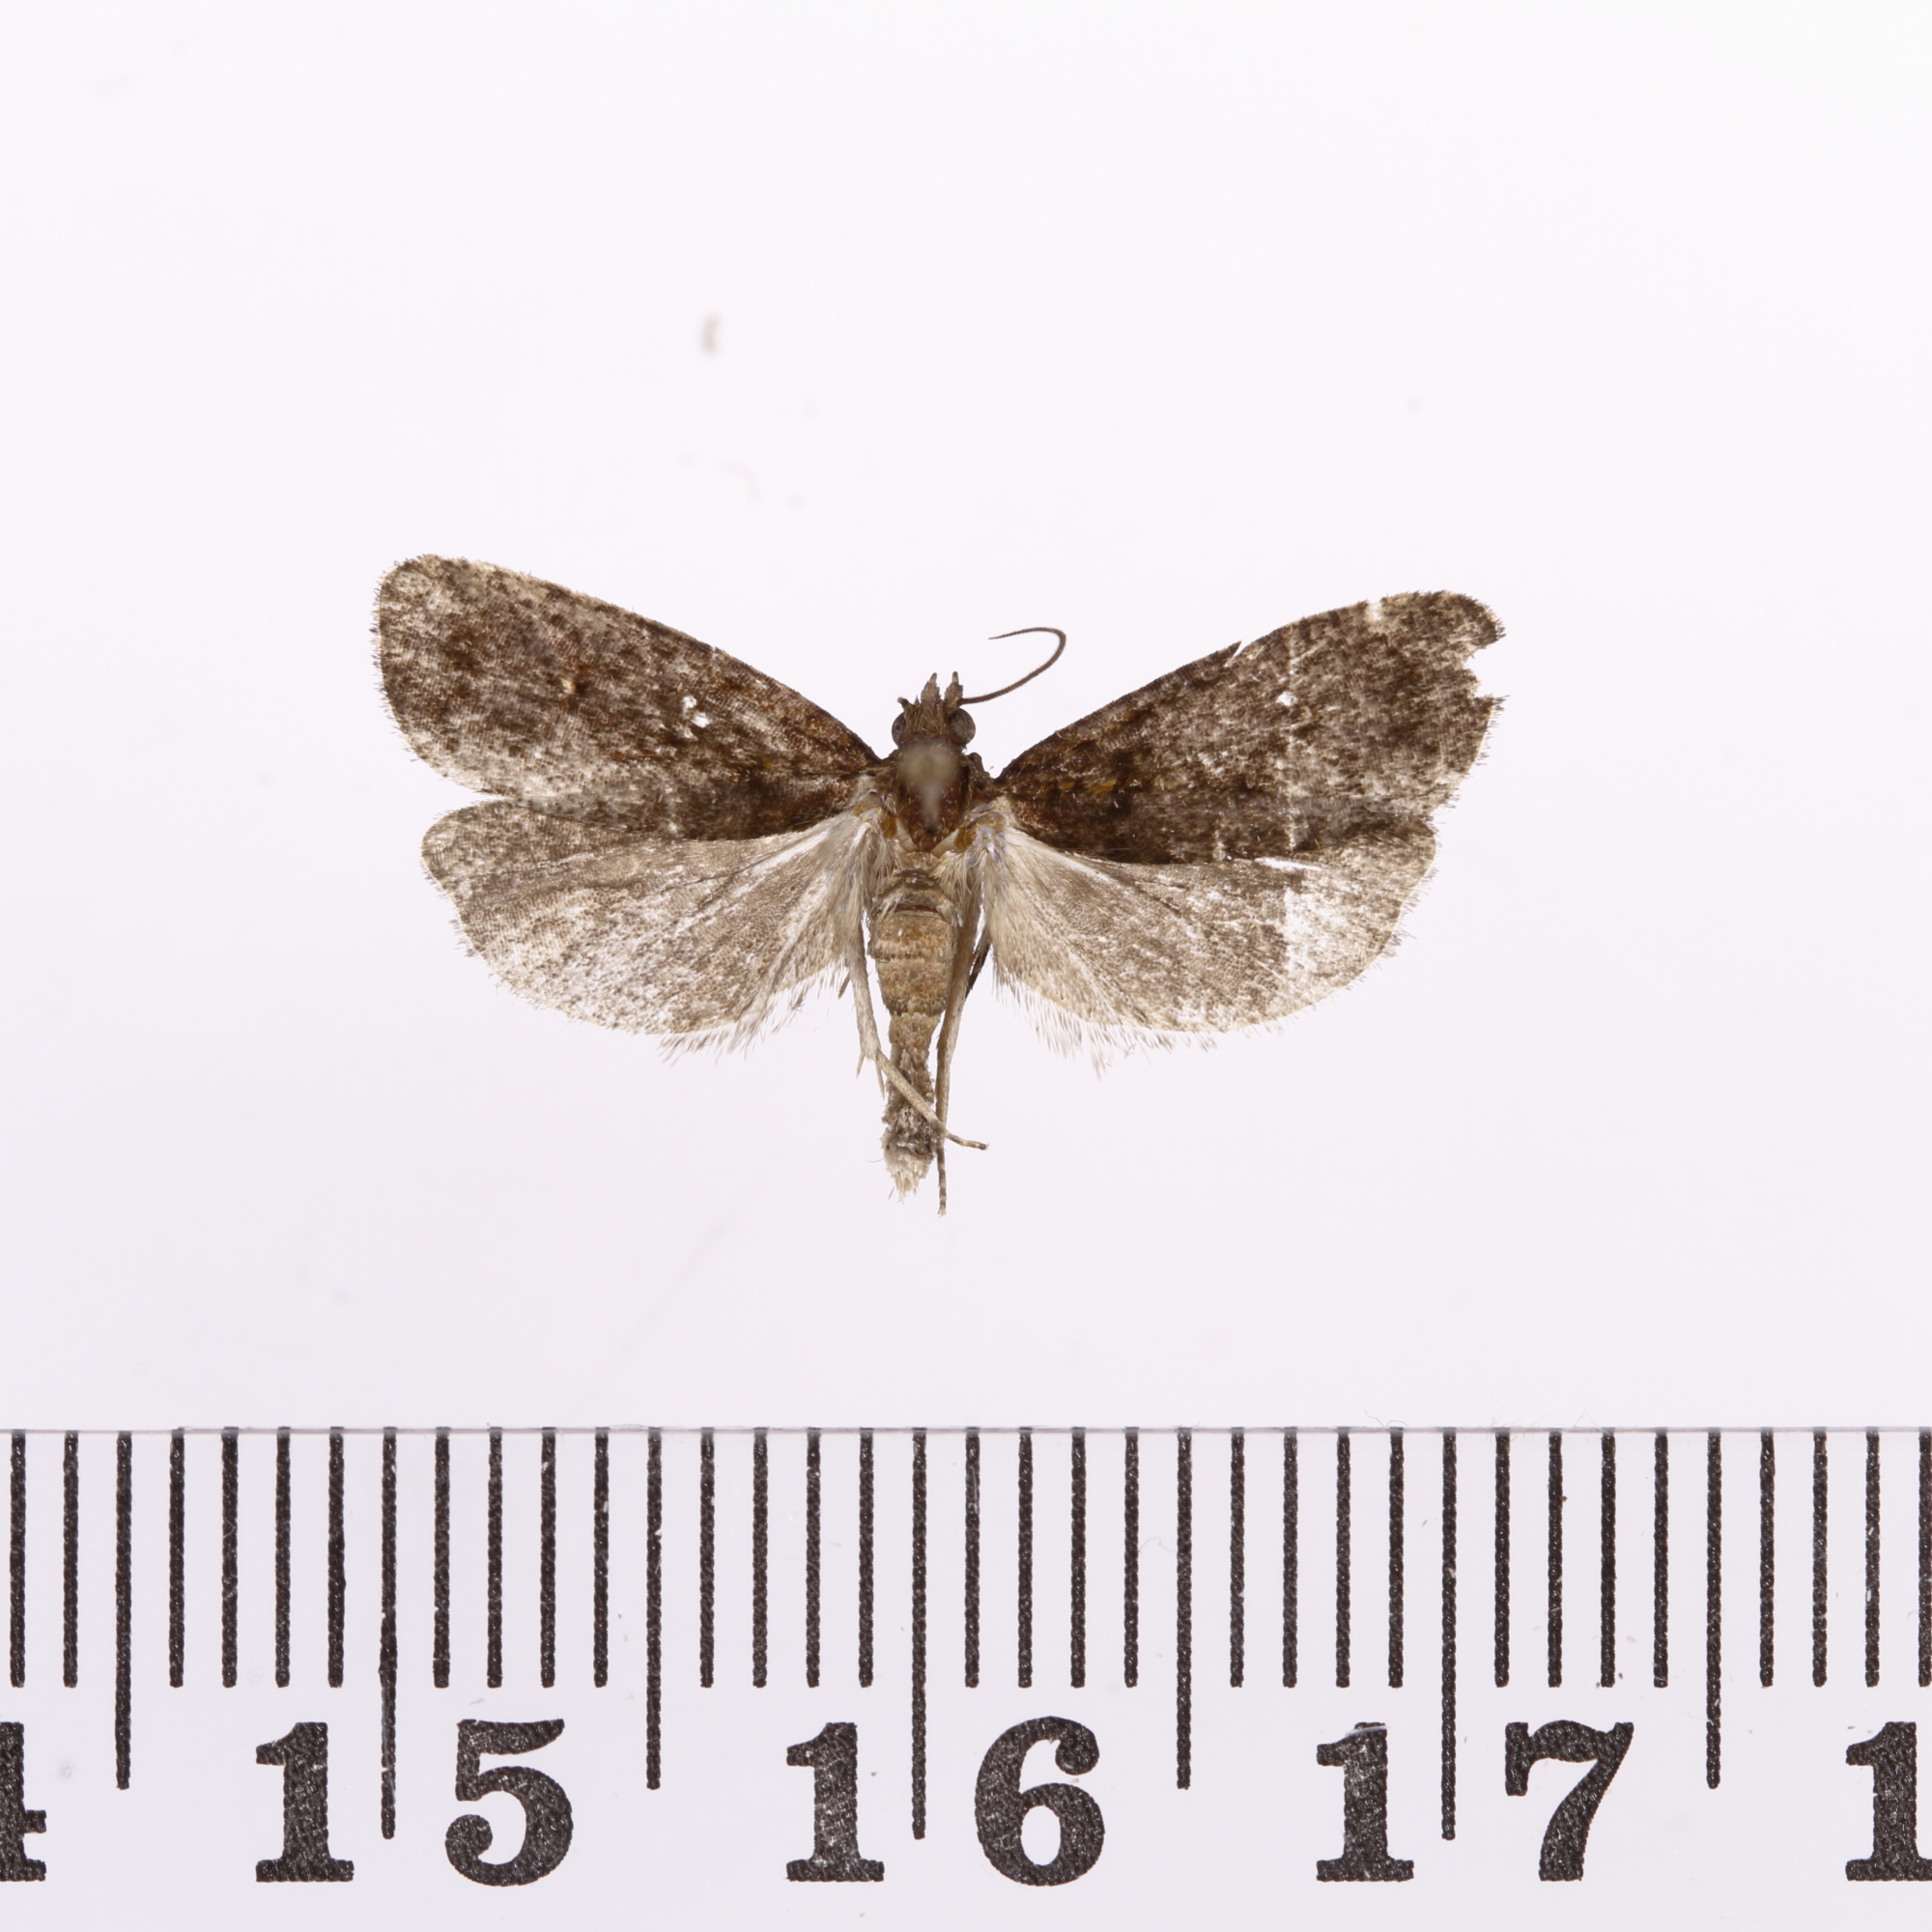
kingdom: Animalia
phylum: Arthropoda
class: Insecta
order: Lepidoptera
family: Tortricidae
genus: Cryptaspasma
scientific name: Cryptaspasma querula
